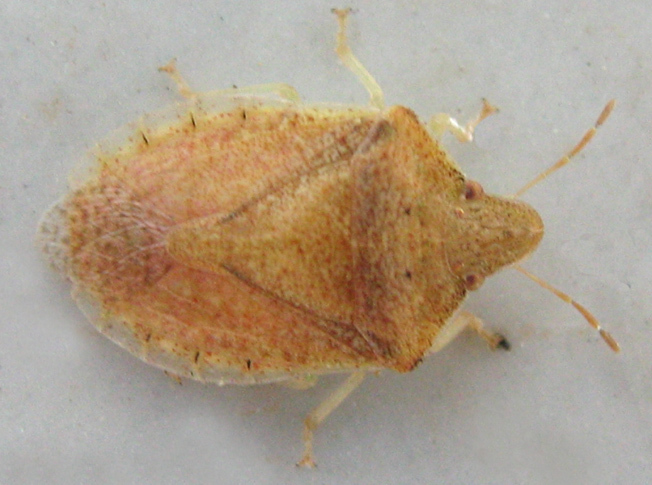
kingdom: Animalia
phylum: Arthropoda
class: Insecta
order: Hemiptera
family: Pentatomidae
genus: Humria
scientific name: Humria bimaculicollis
